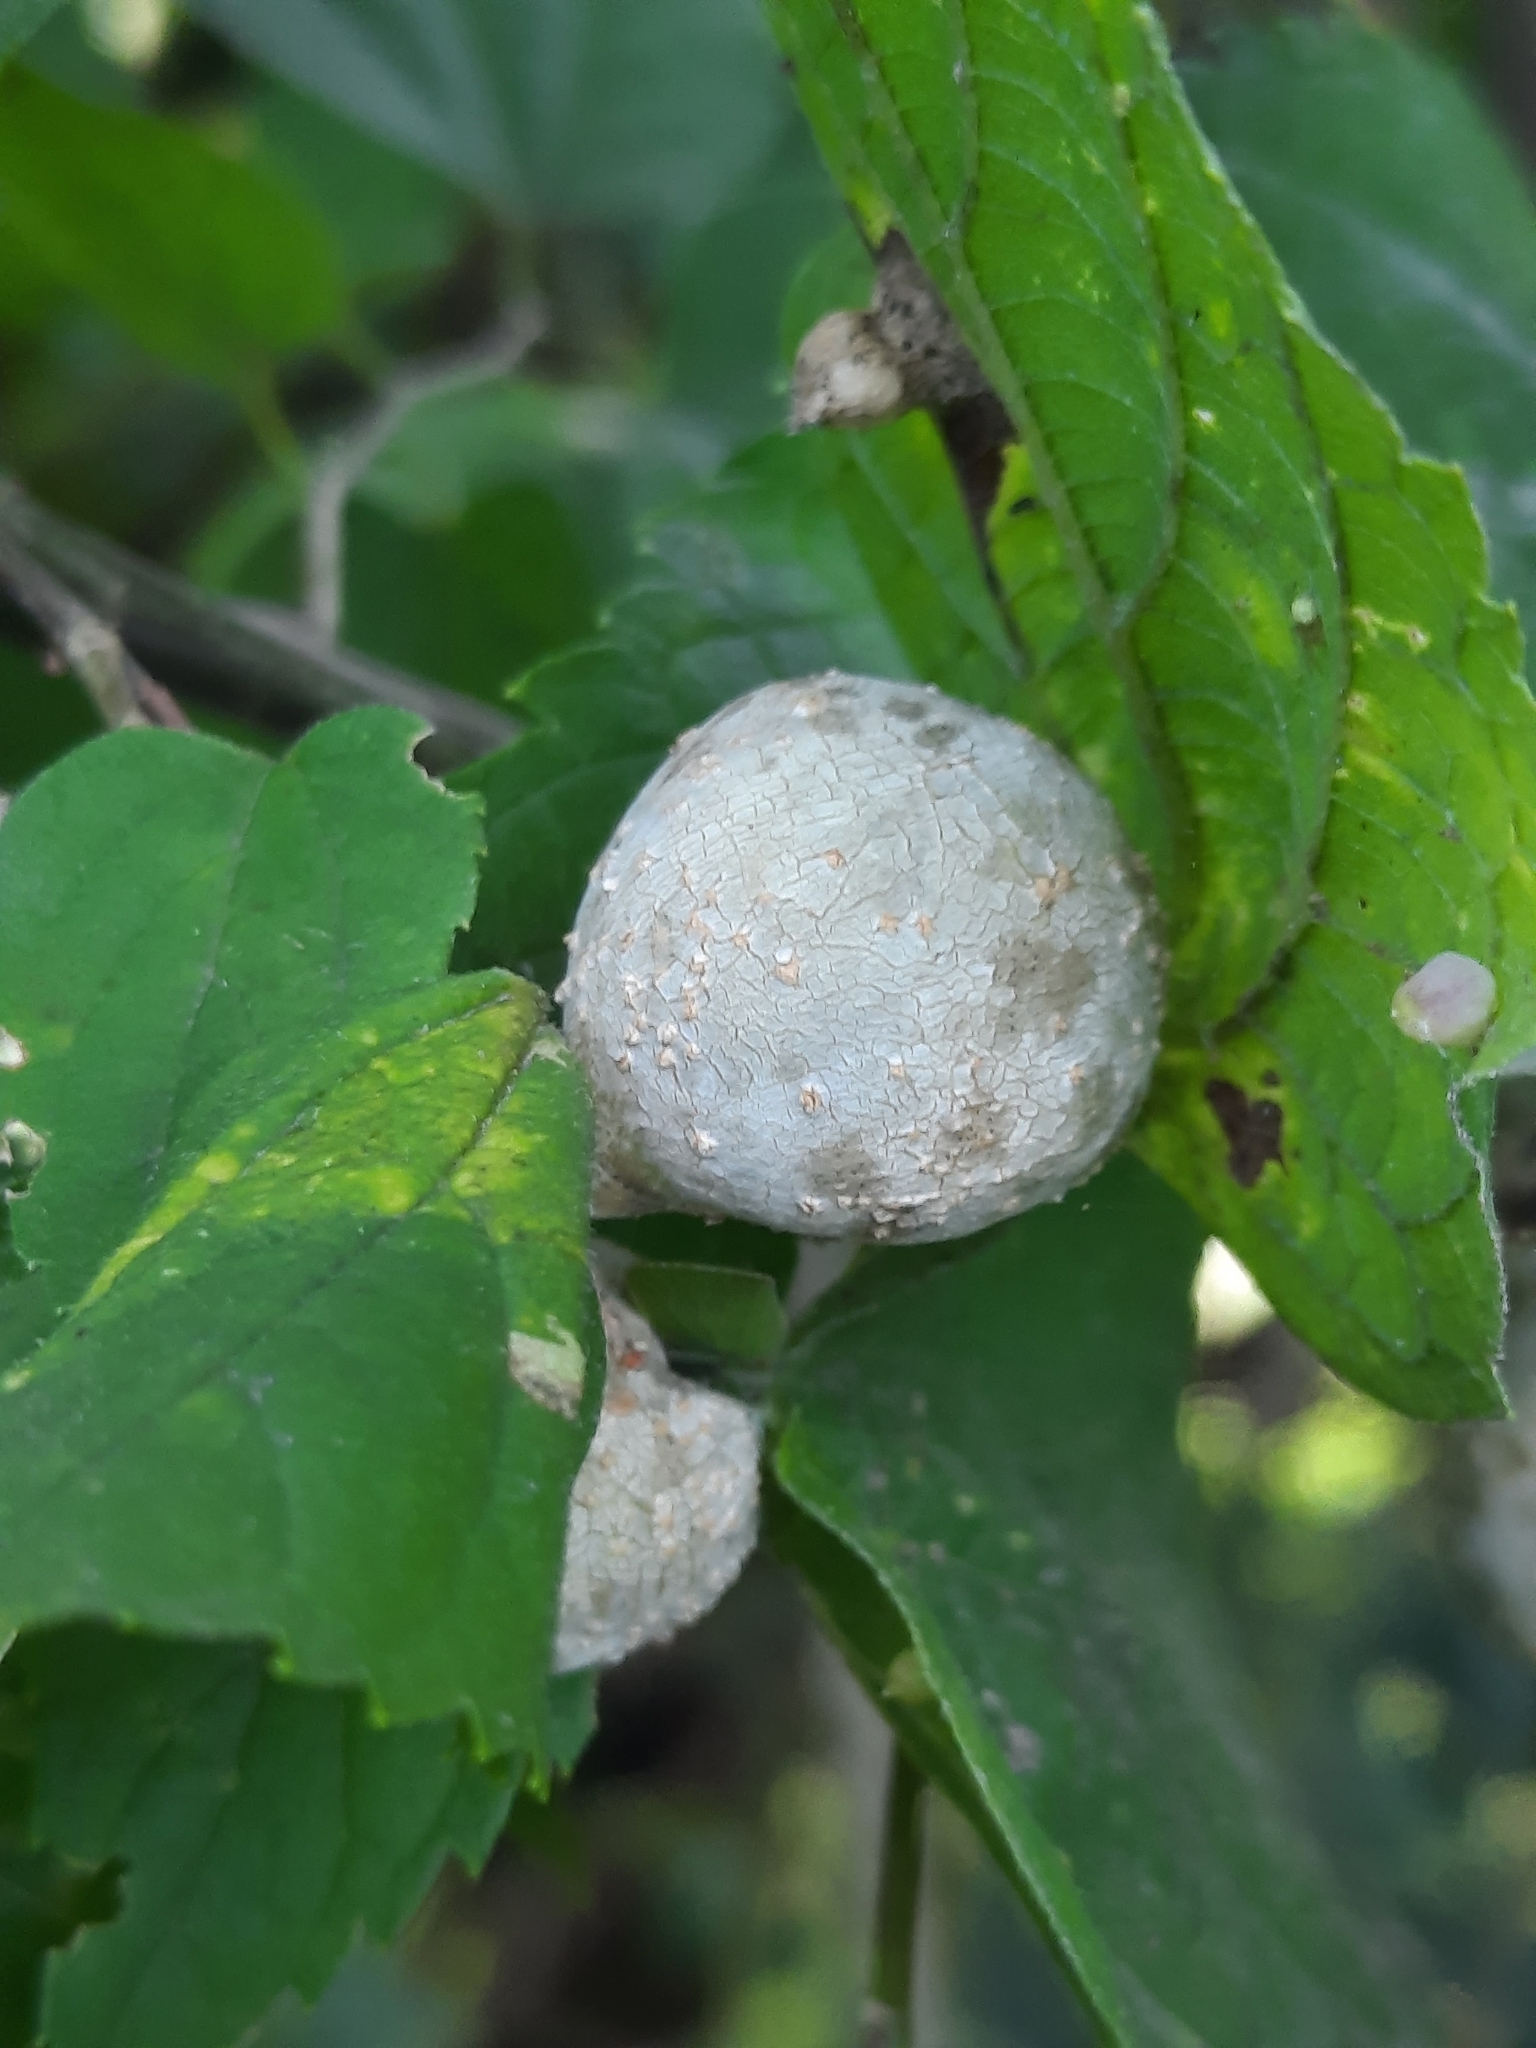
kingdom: Animalia
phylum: Arthropoda
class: Insecta
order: Hemiptera
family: Aphalaridae
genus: Pachypsylla
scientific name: Pachypsylla venusta
